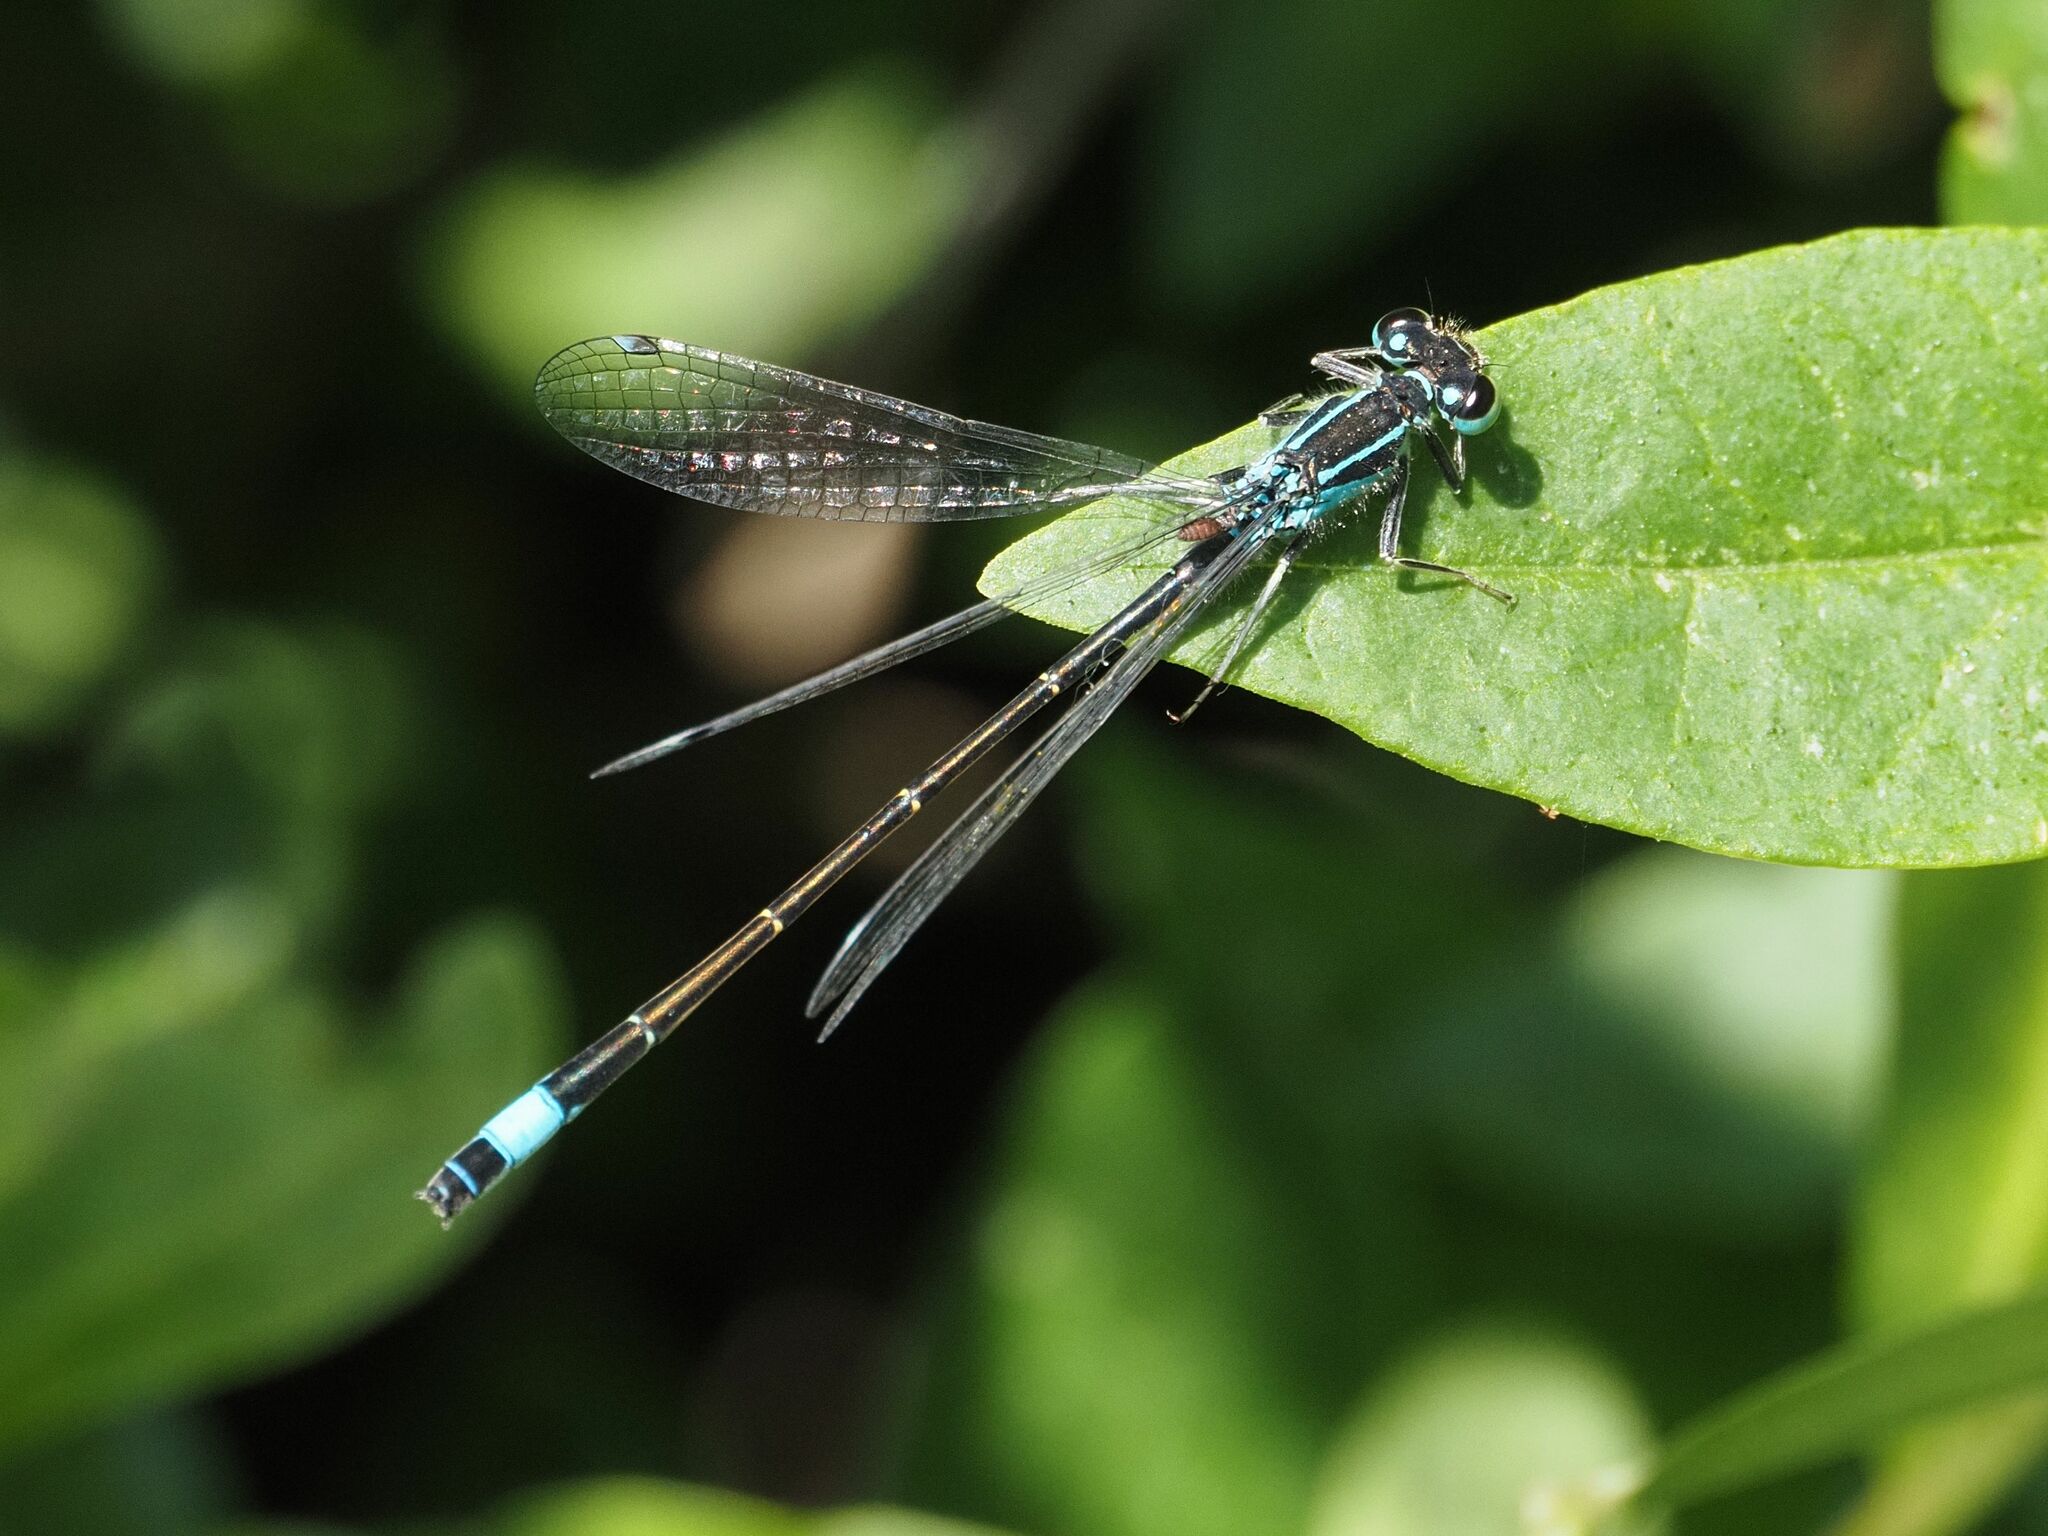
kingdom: Animalia
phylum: Arthropoda
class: Insecta
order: Odonata
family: Coenagrionidae
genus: Ischnura
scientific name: Ischnura elegans
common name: Blue-tailed damselfly
